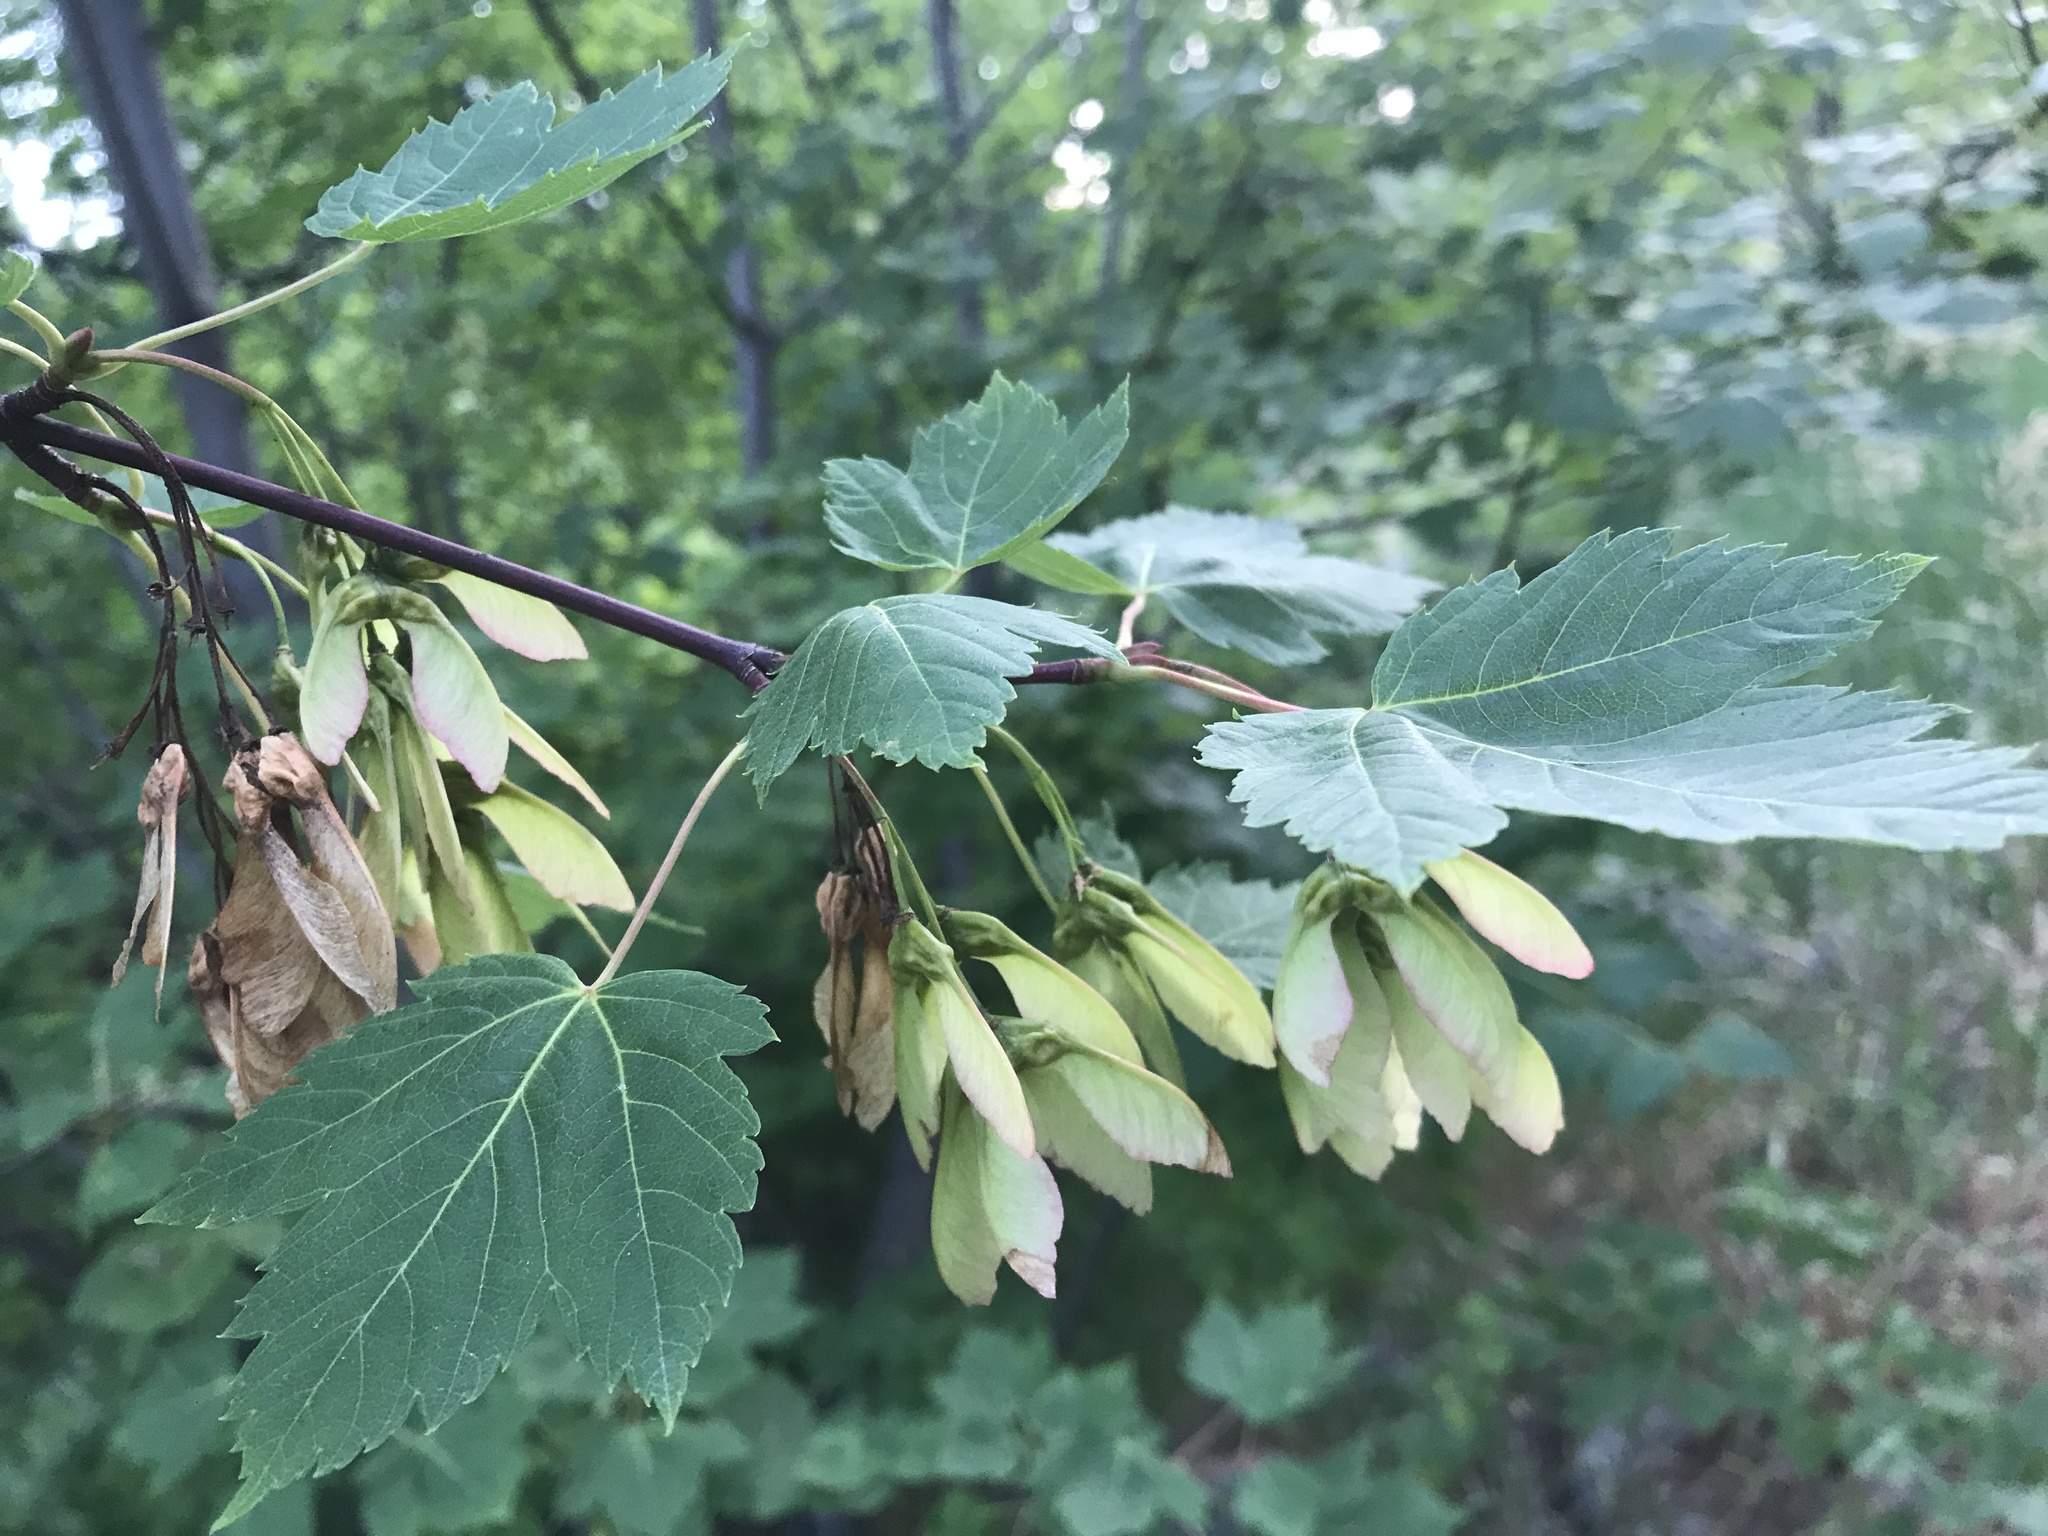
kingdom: Plantae
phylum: Tracheophyta
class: Magnoliopsida
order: Sapindales
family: Sapindaceae
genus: Acer
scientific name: Acer glabrum
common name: Rocky mountain maple
